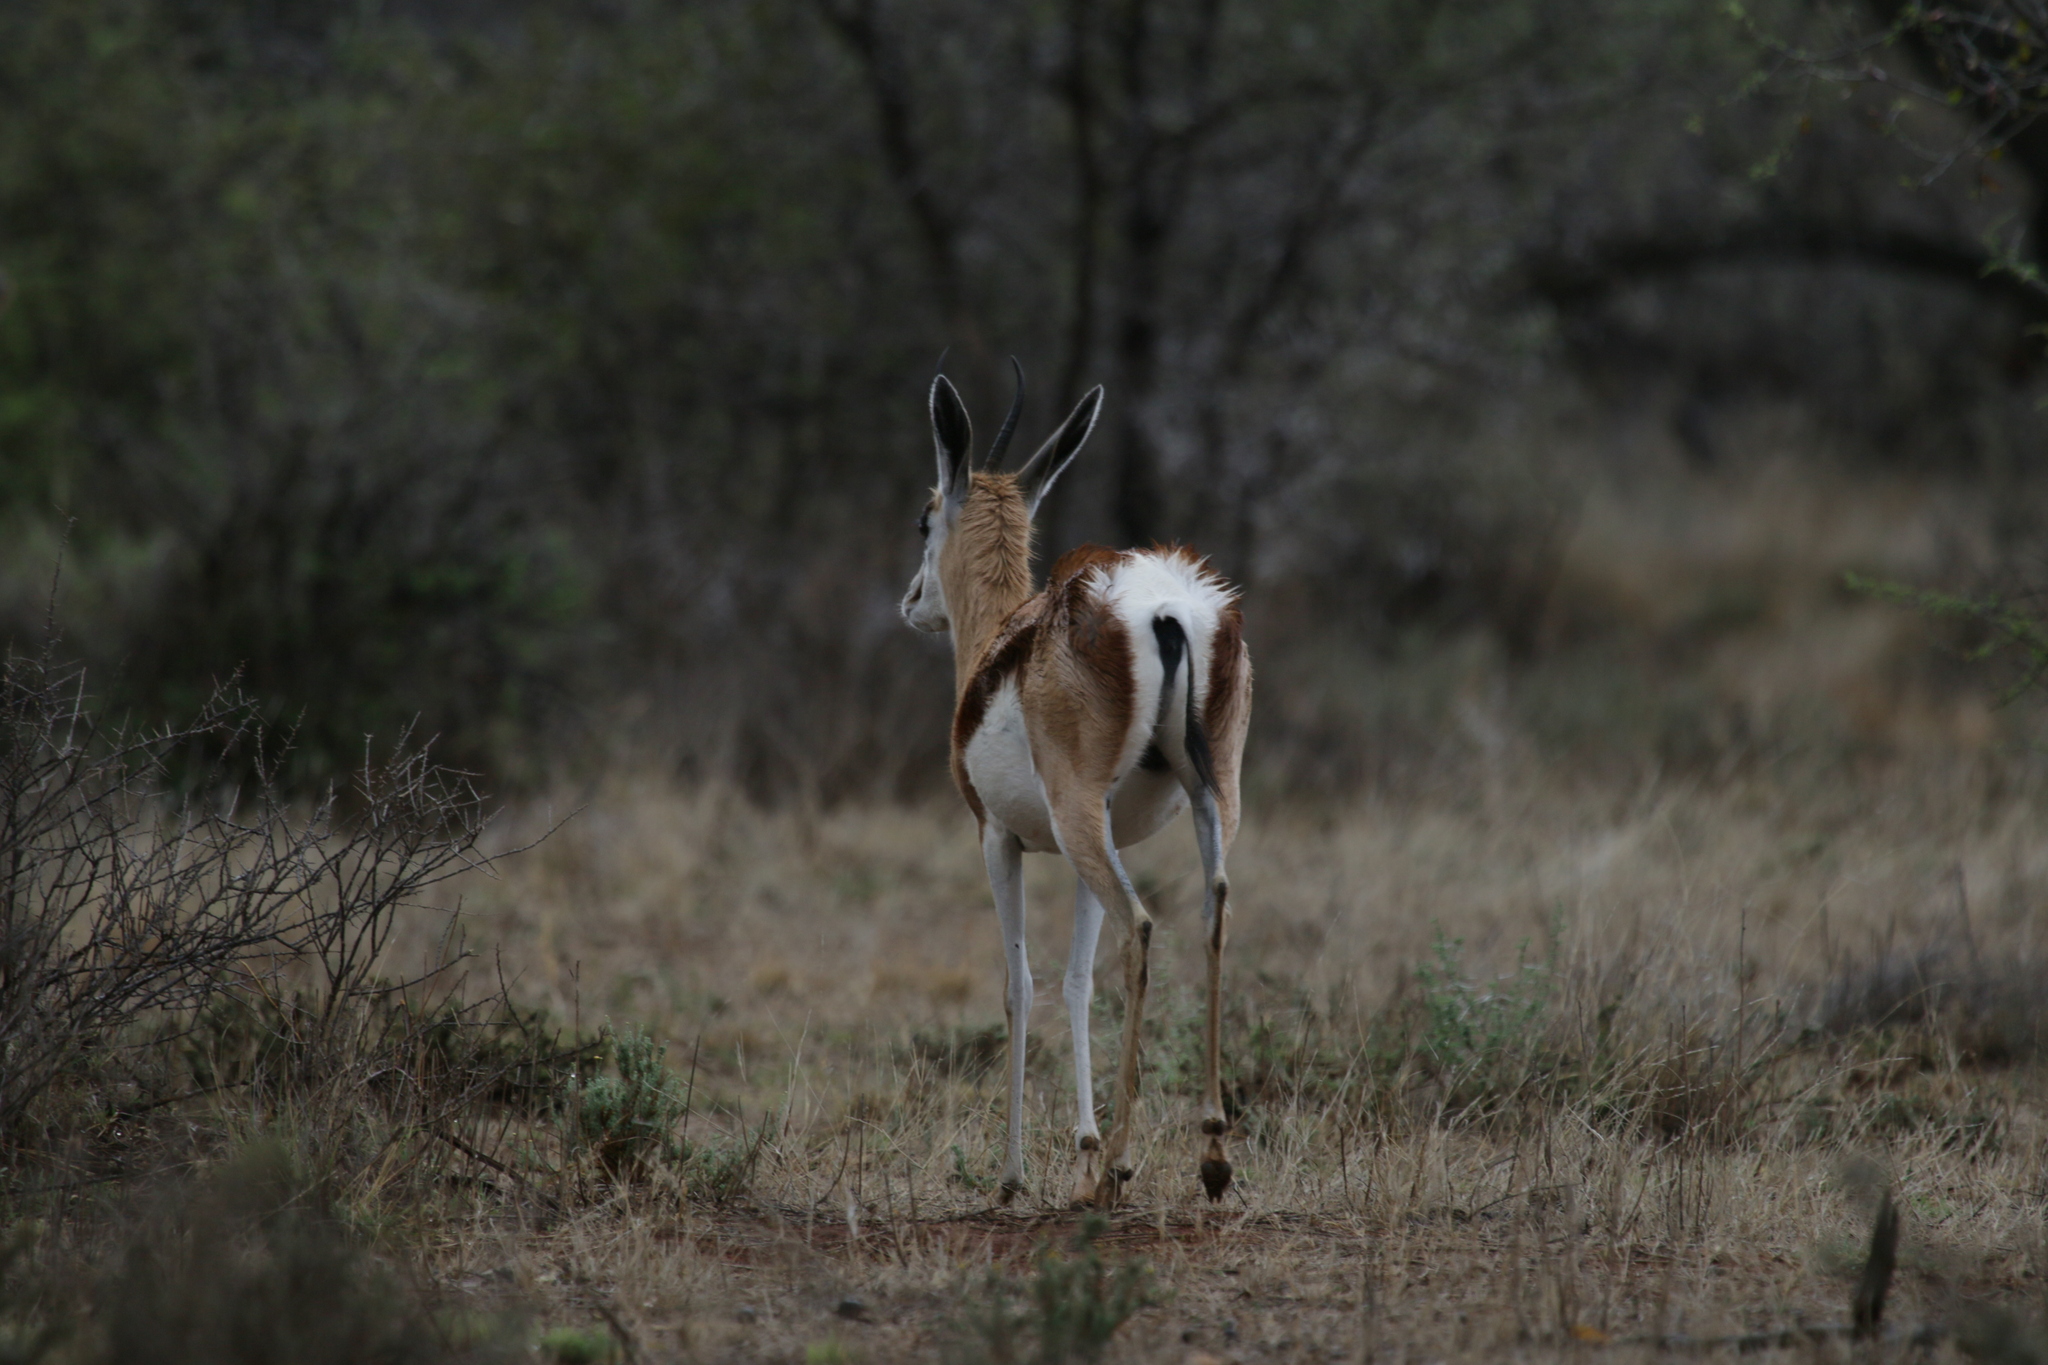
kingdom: Animalia
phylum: Chordata
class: Mammalia
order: Artiodactyla
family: Bovidae
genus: Antidorcas
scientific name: Antidorcas marsupialis
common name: Springbok
